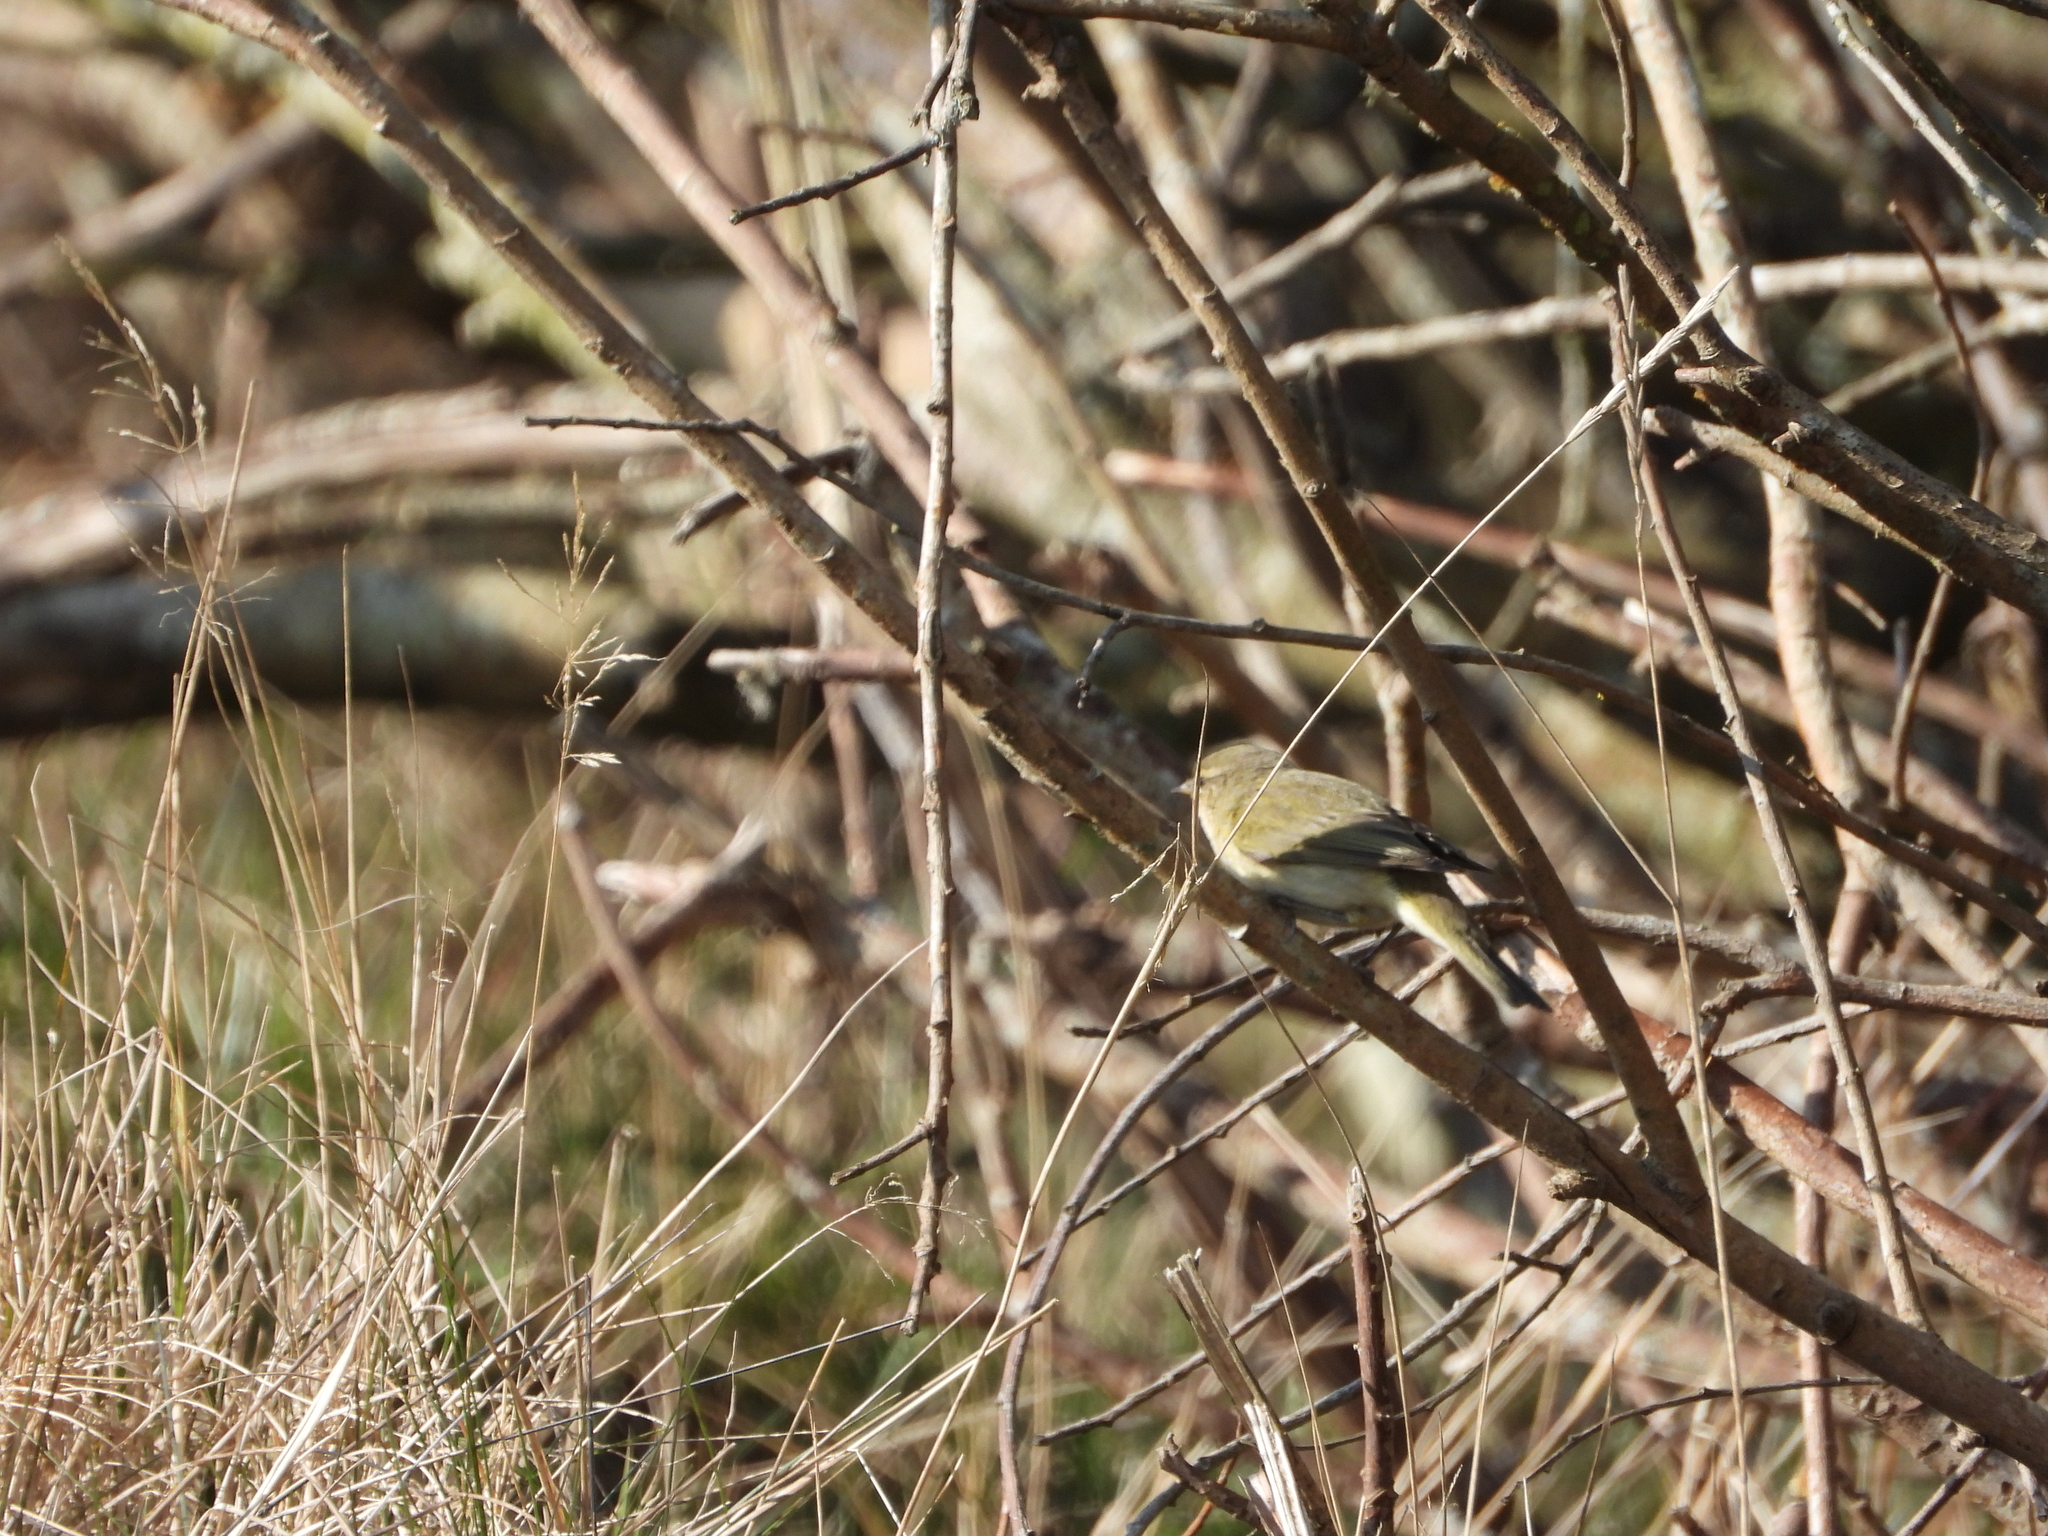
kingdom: Animalia
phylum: Chordata
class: Aves
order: Passeriformes
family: Phylloscopidae
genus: Phylloscopus
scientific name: Phylloscopus collybita
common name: Common chiffchaff
